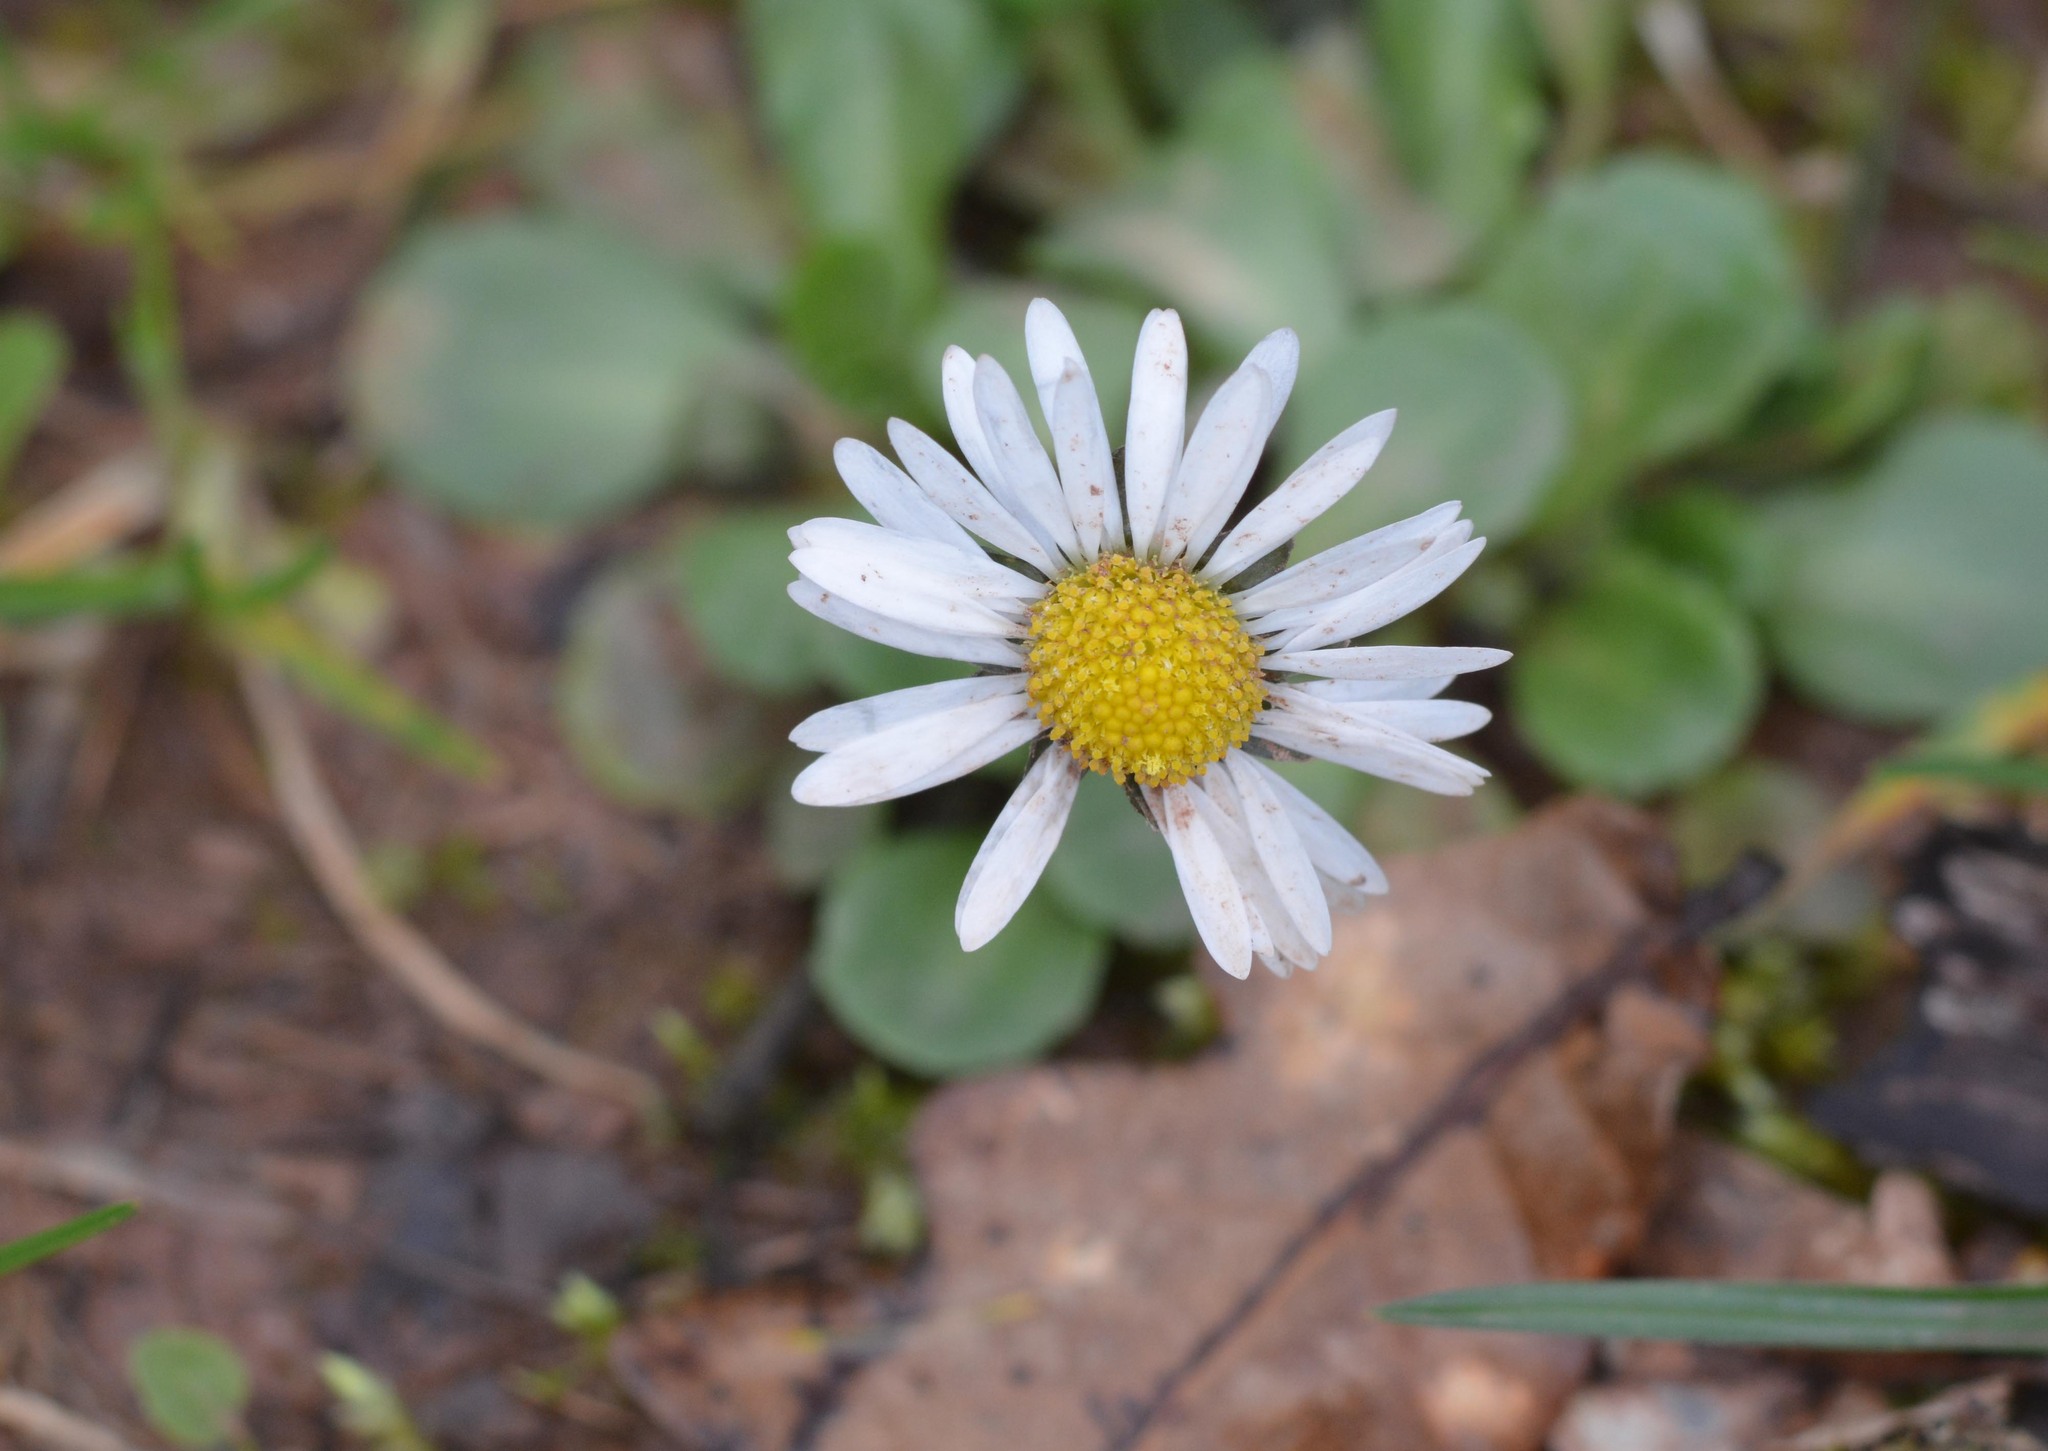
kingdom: Plantae
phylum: Tracheophyta
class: Magnoliopsida
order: Asterales
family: Asteraceae
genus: Bellis
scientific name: Bellis perennis
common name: Lawndaisy
